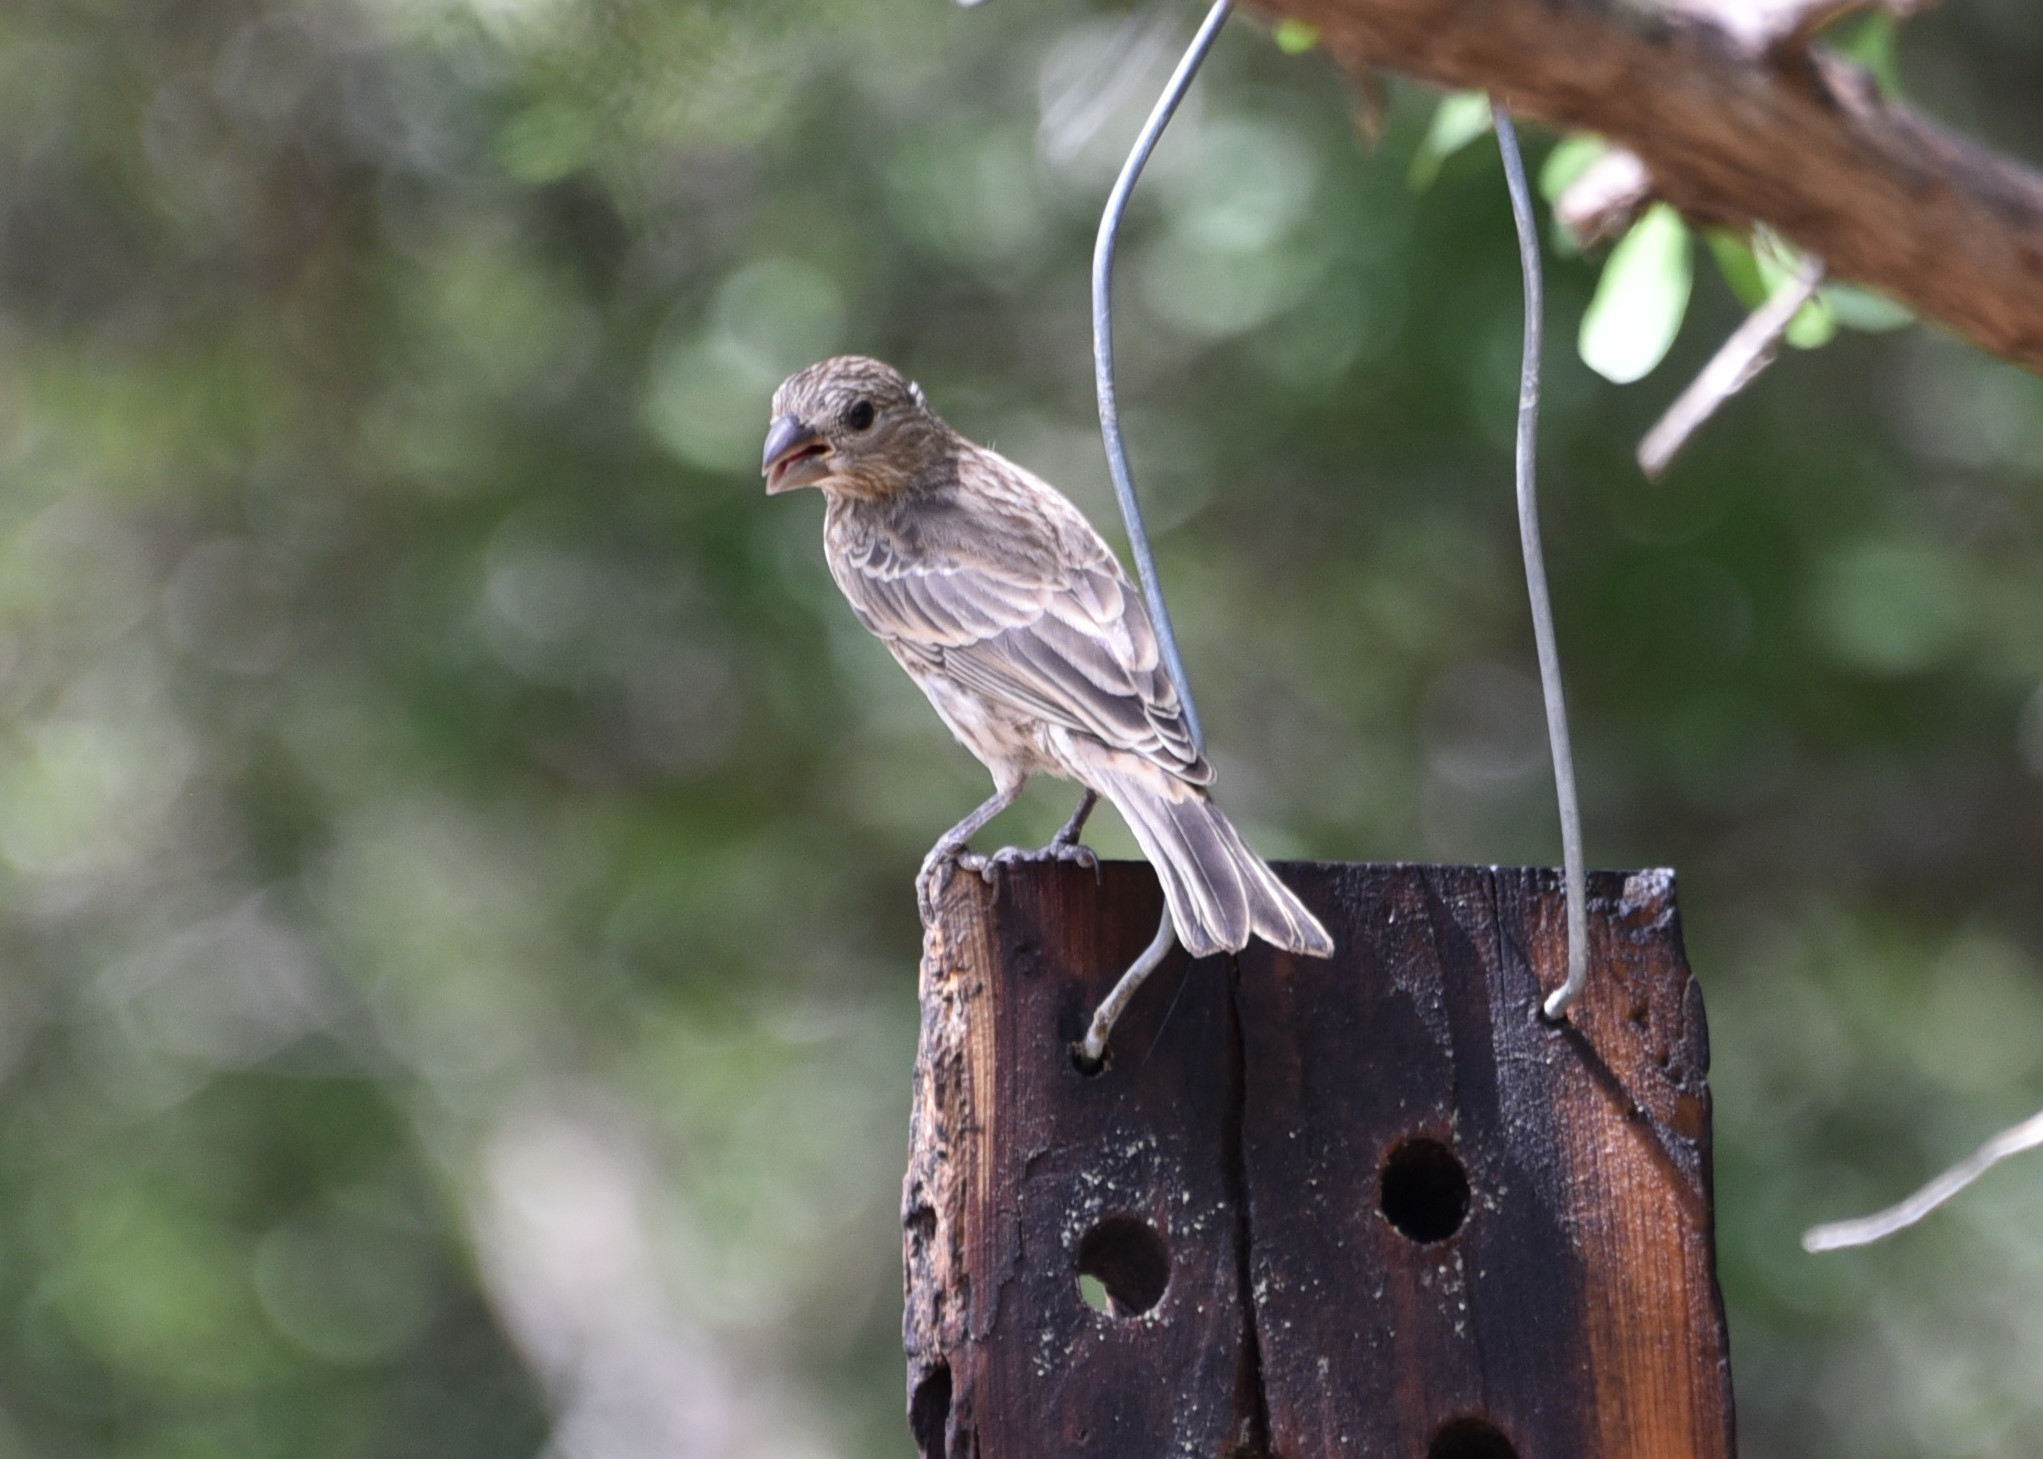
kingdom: Animalia
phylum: Chordata
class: Aves
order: Passeriformes
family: Fringillidae
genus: Haemorhous
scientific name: Haemorhous mexicanus
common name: House finch
